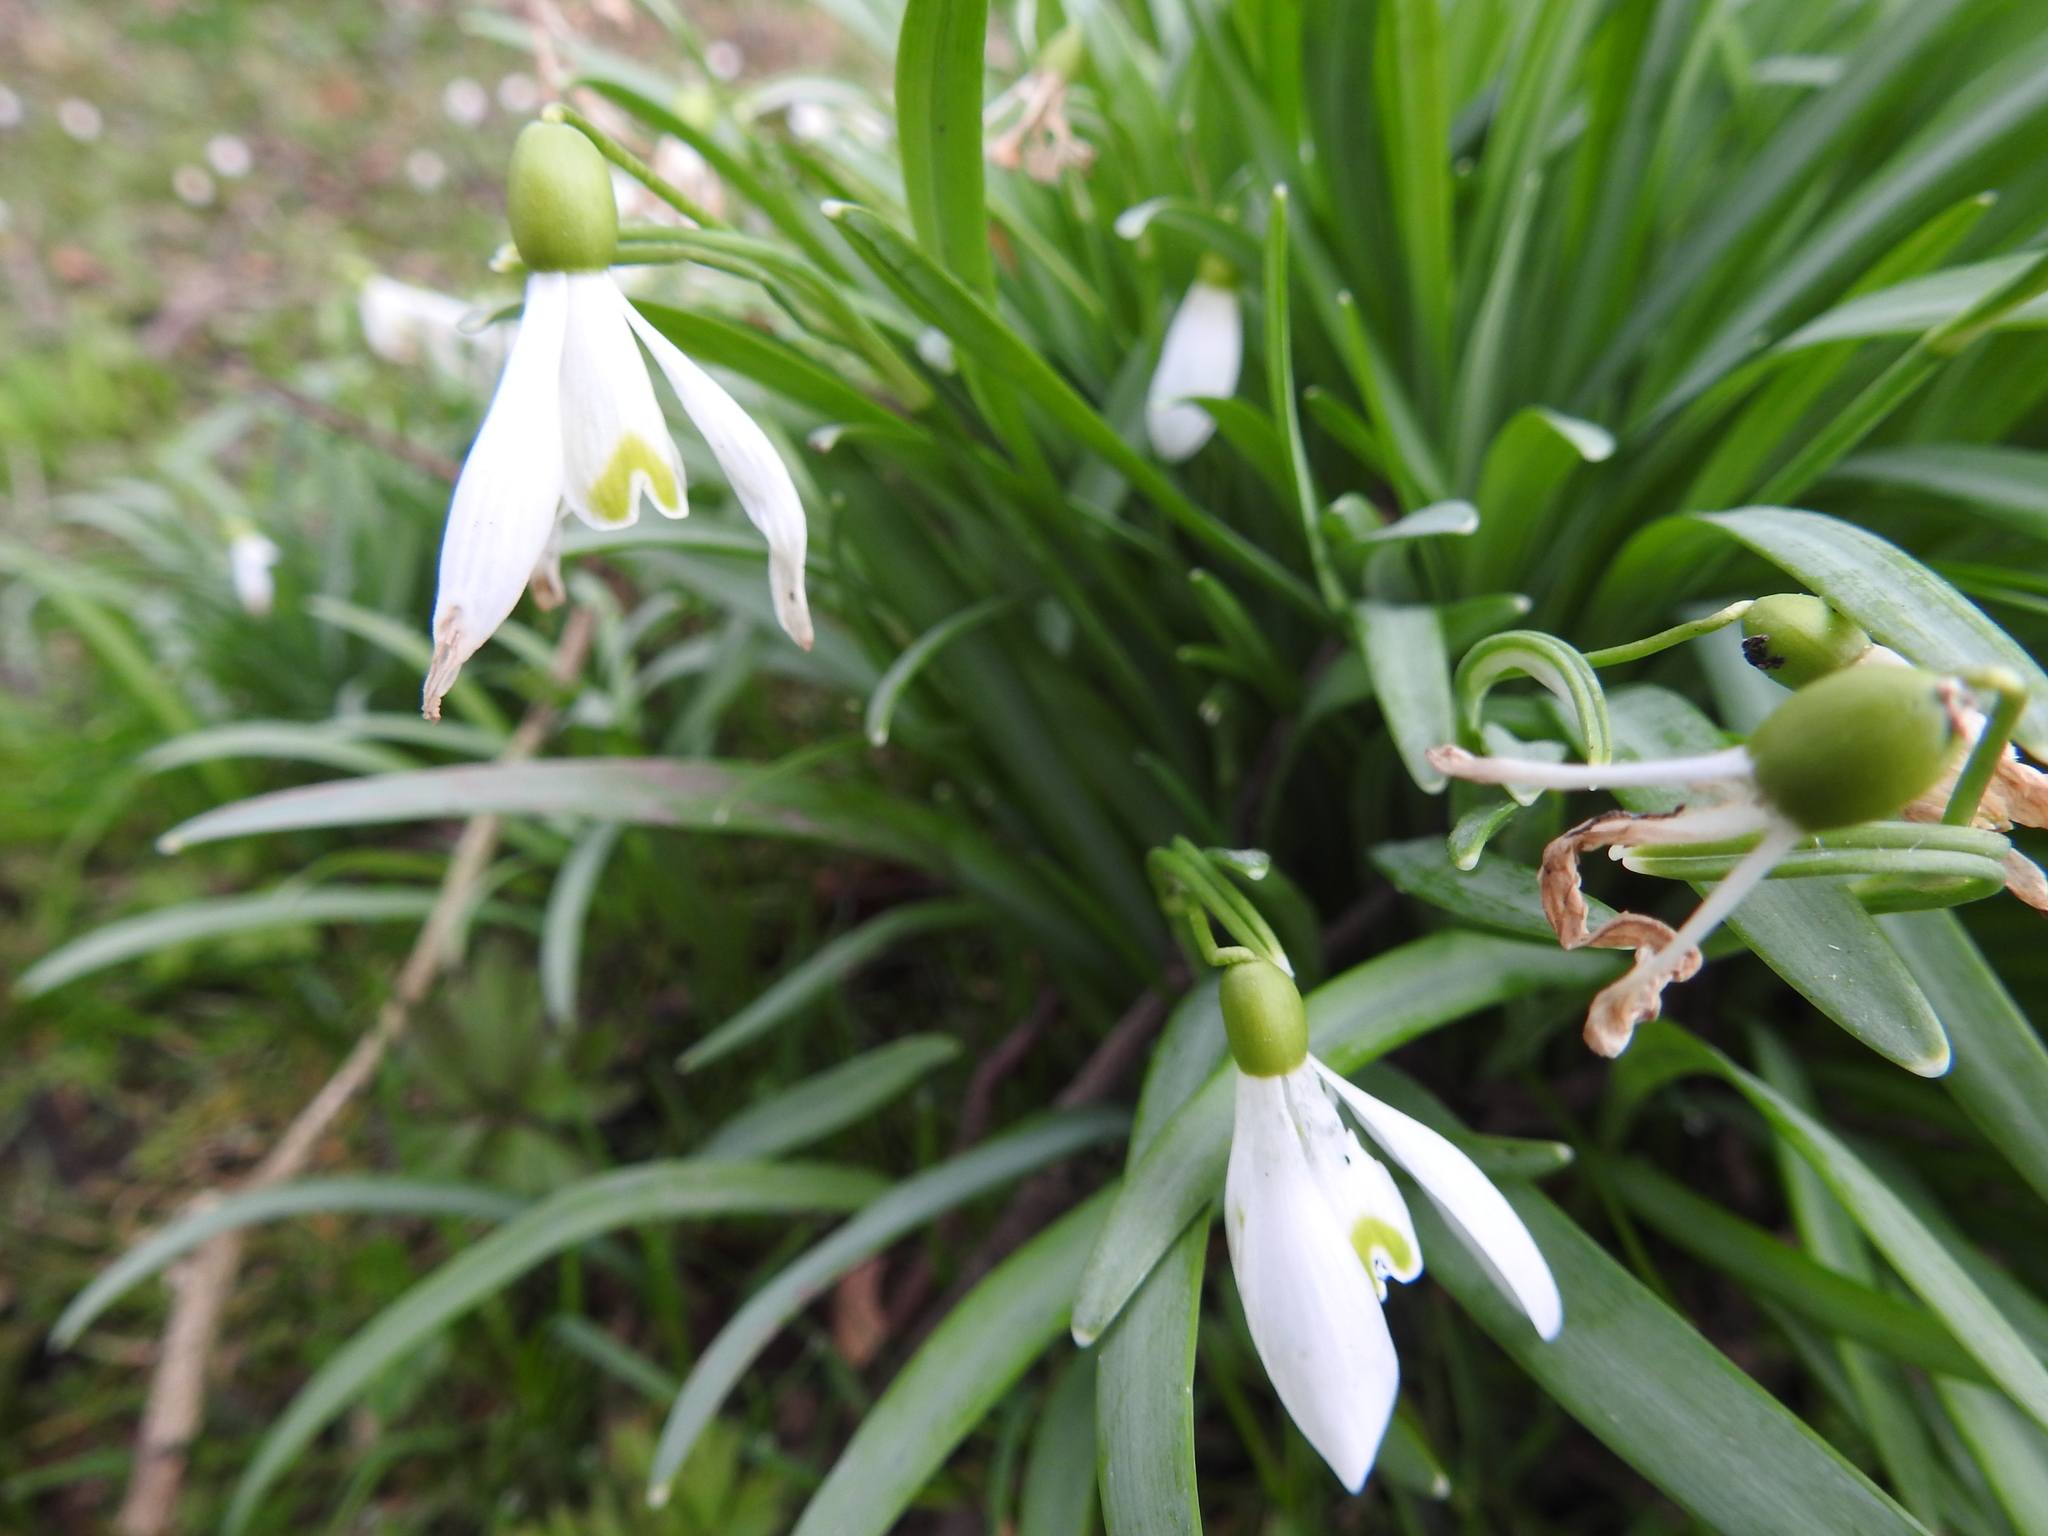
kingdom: Plantae
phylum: Tracheophyta
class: Liliopsida
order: Asparagales
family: Amaryllidaceae
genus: Galanthus
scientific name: Galanthus nivalis
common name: Snowdrop
